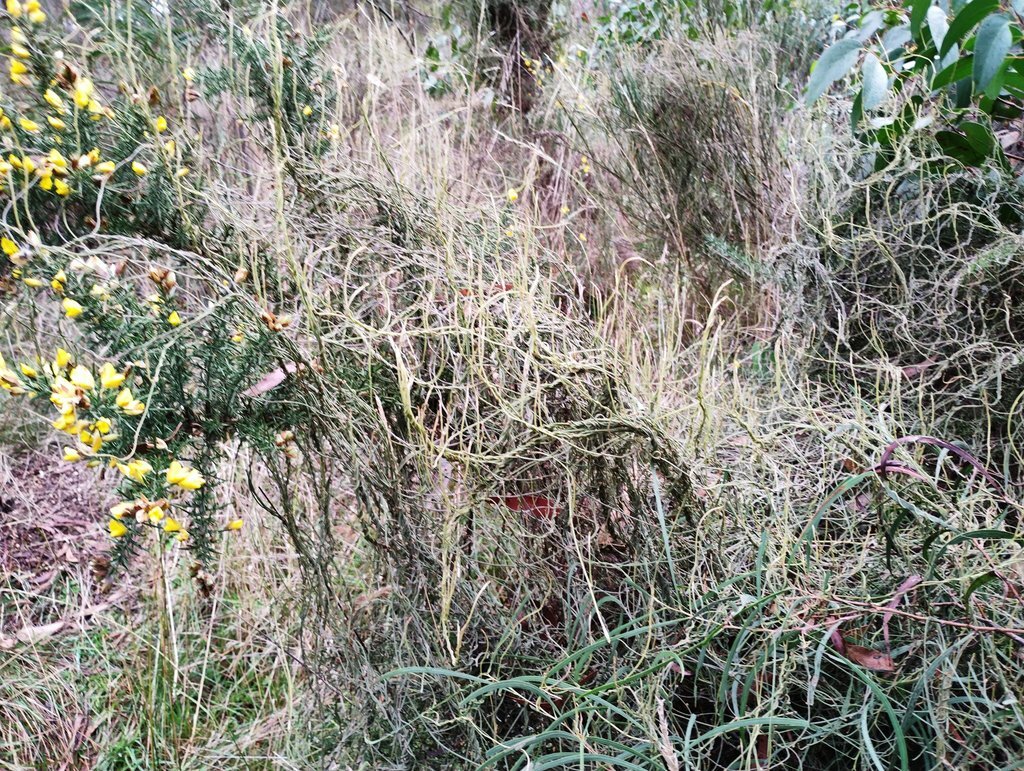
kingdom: Plantae
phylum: Tracheophyta
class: Magnoliopsida
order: Laurales
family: Lauraceae
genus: Cassytha
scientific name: Cassytha pubescens
